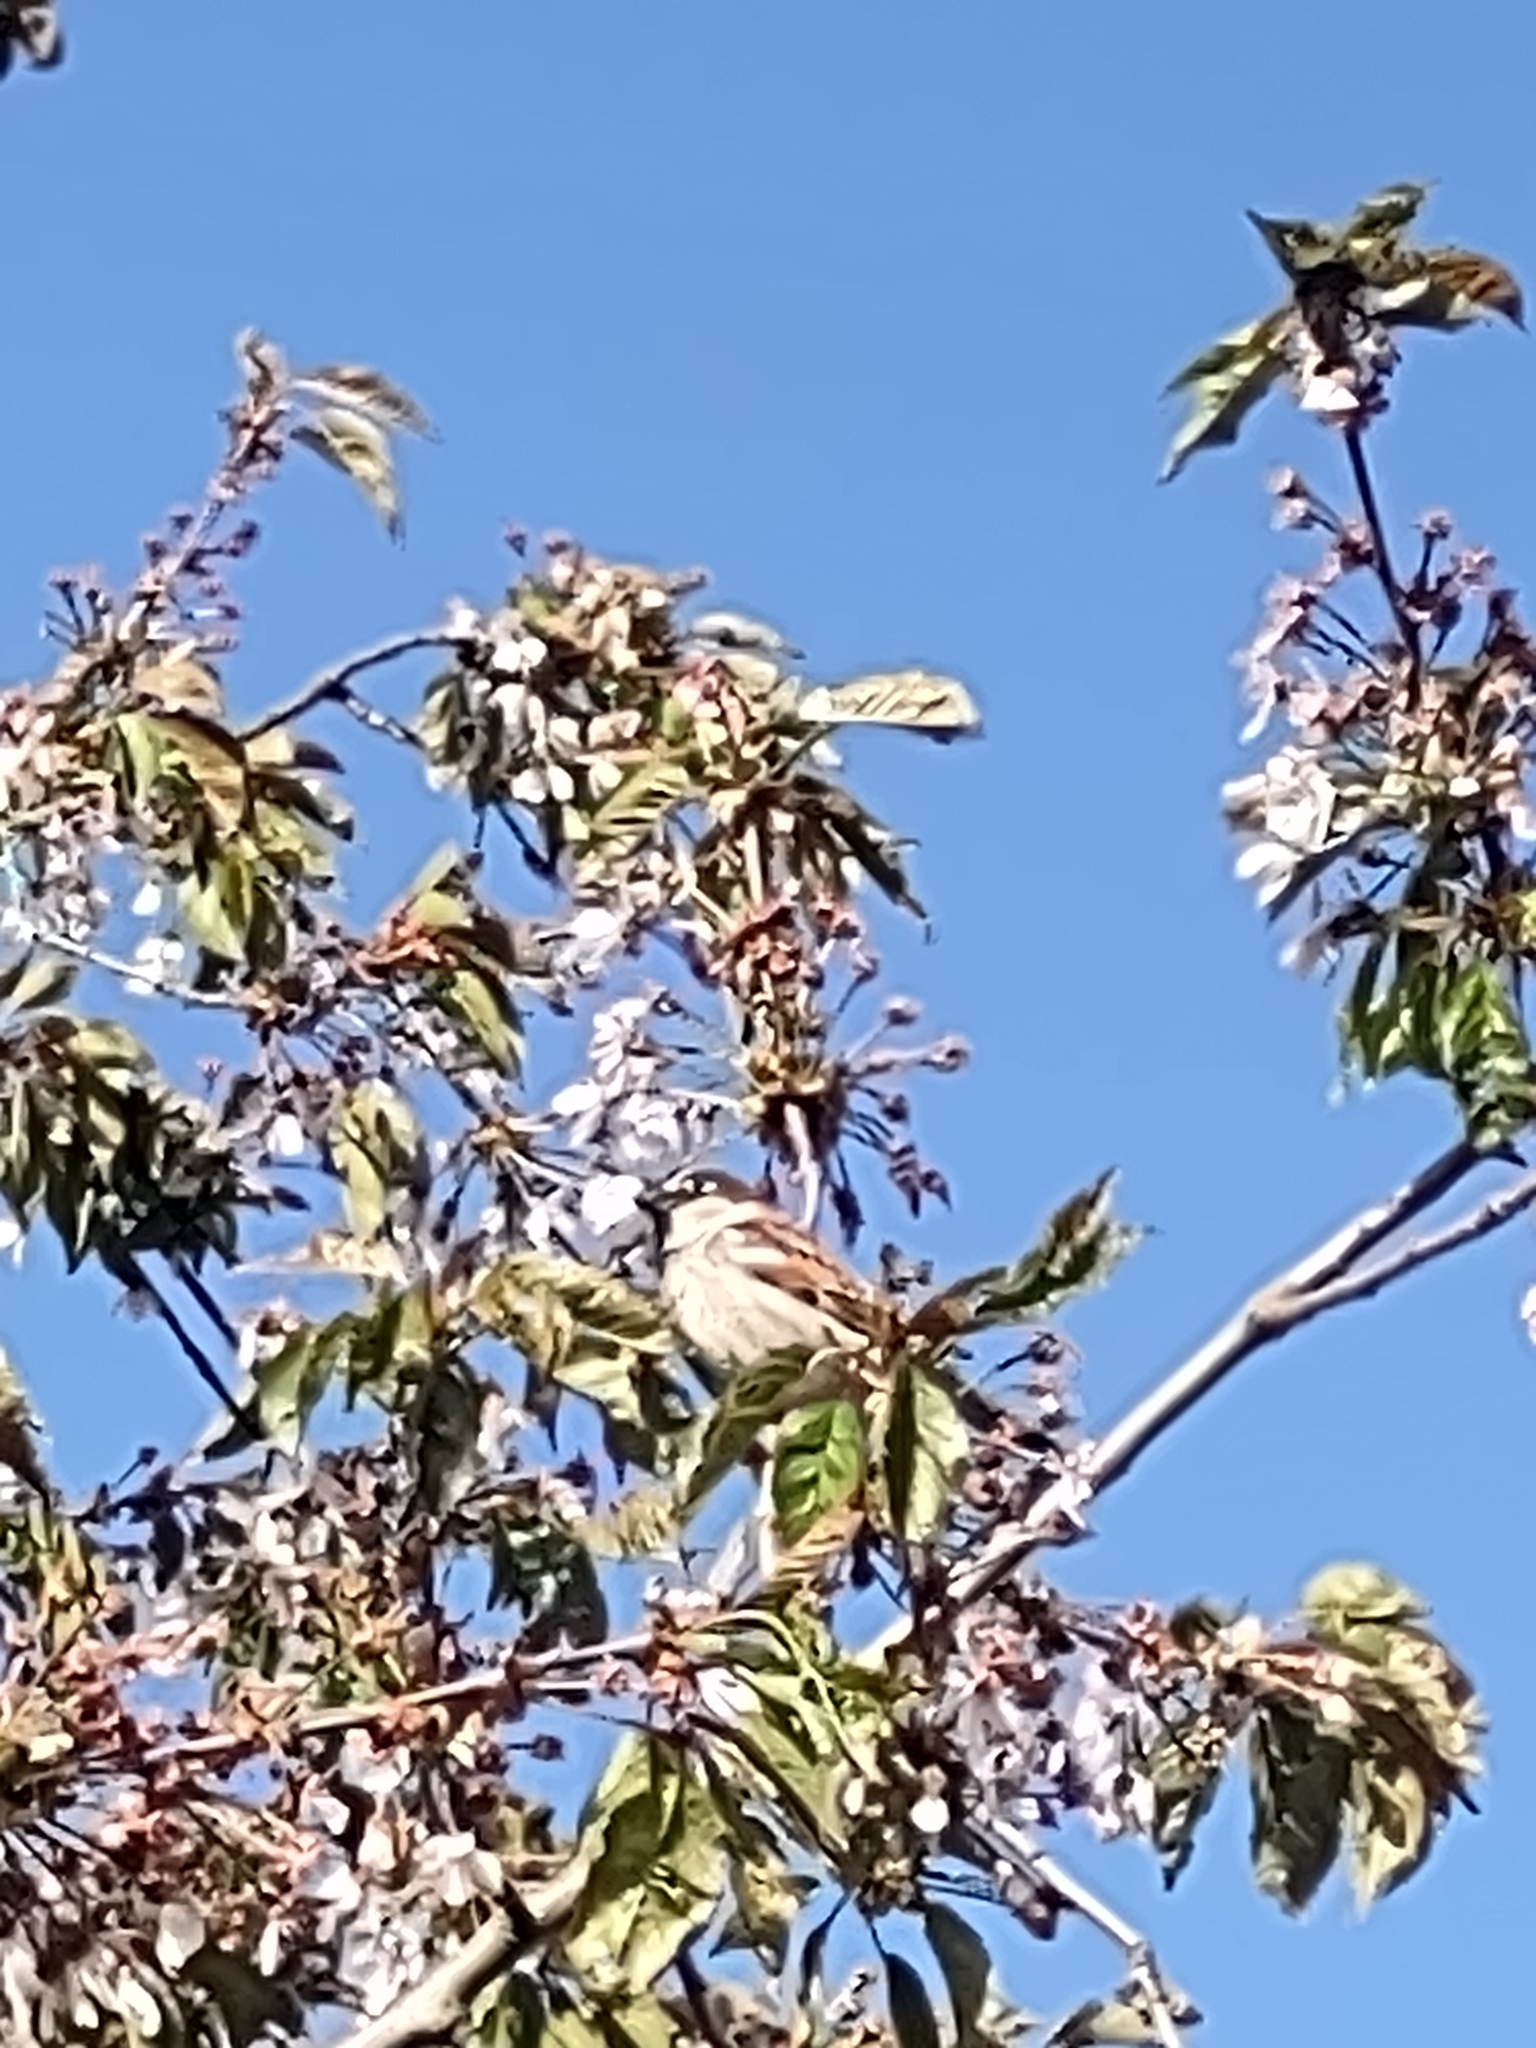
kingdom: Animalia
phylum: Chordata
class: Aves
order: Passeriformes
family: Passeridae
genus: Passer
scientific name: Passer domesticus
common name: House sparrow
